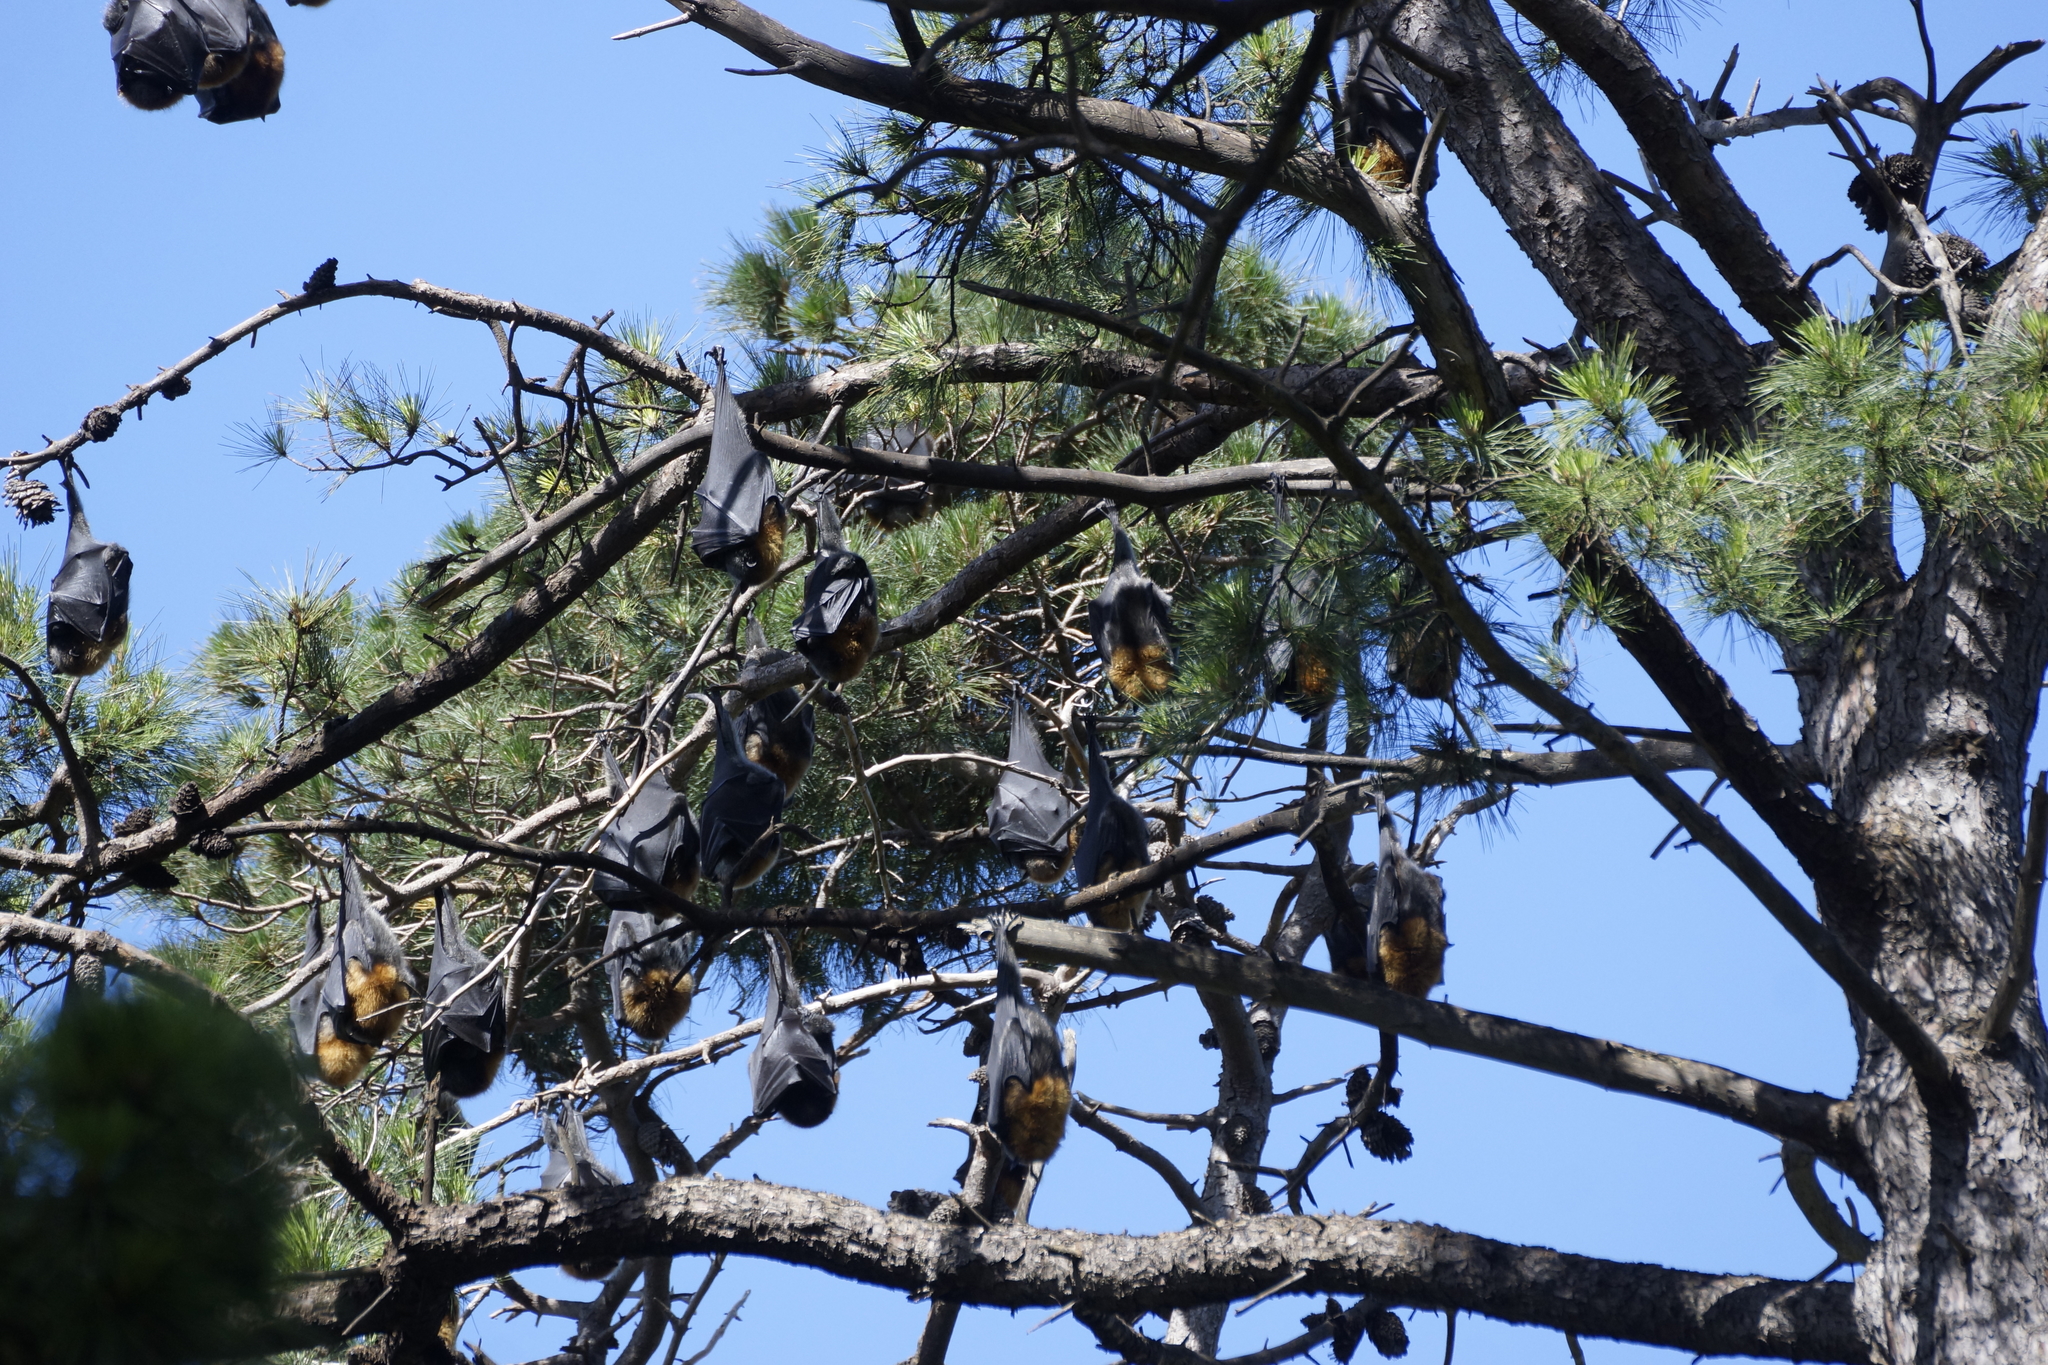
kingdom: Animalia
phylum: Chordata
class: Mammalia
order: Chiroptera
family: Pteropodidae
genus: Pteropus
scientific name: Pteropus poliocephalus
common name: Gray-headed flying fox
